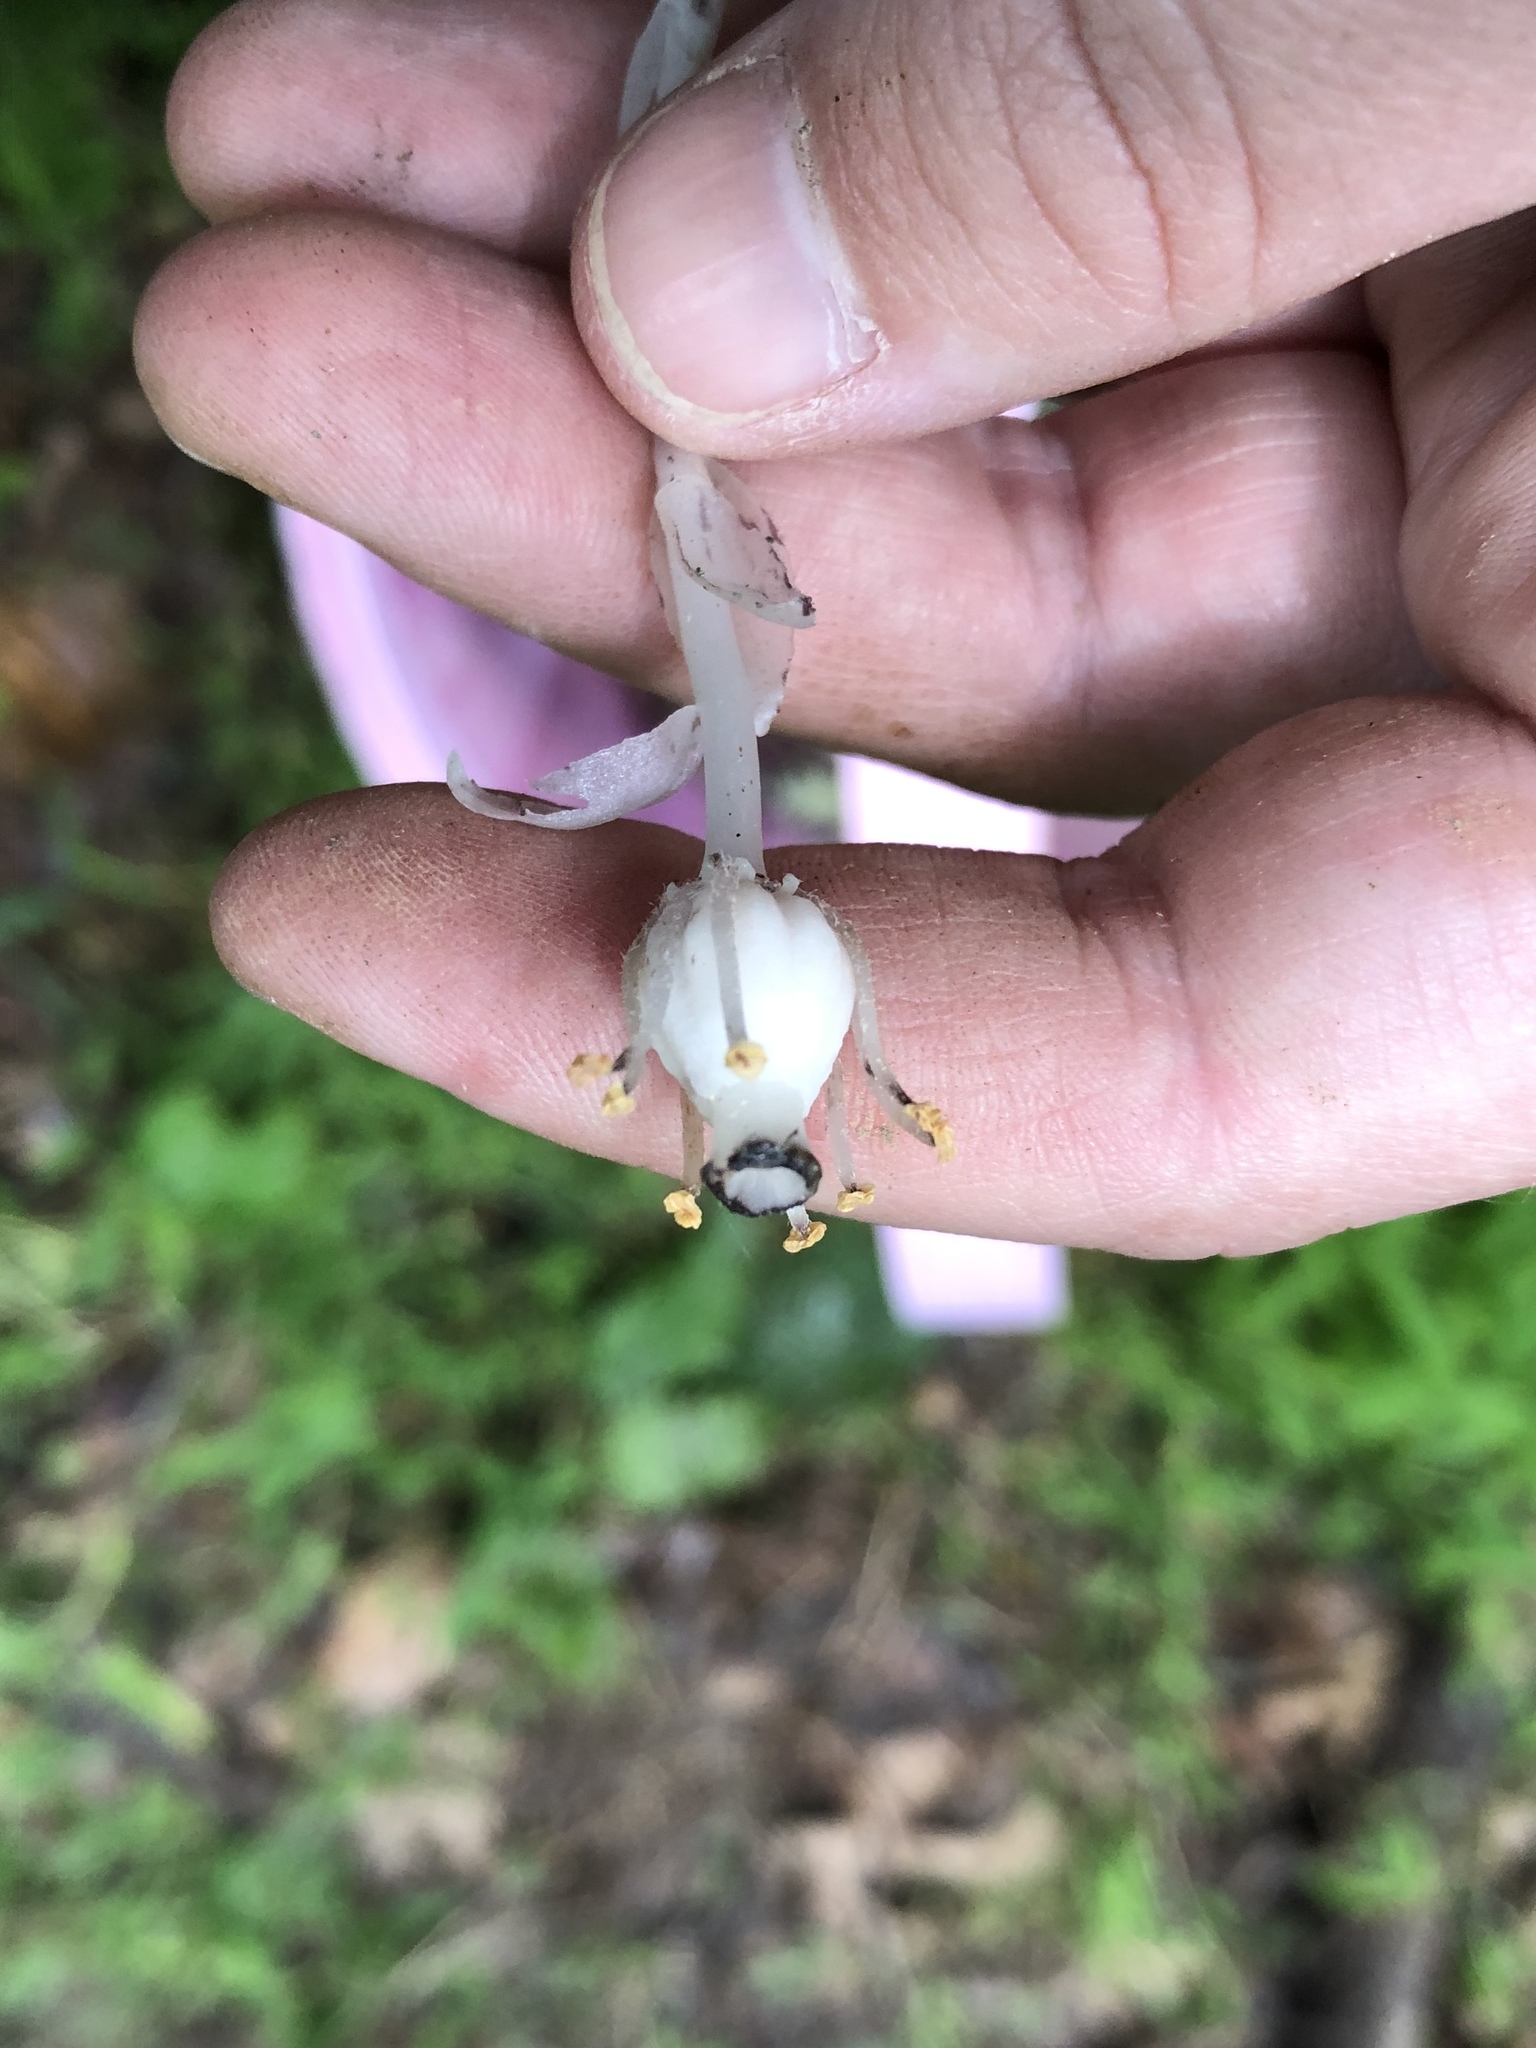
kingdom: Plantae
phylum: Tracheophyta
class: Magnoliopsida
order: Ericales
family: Ericaceae
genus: Monotropa
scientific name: Monotropa uniflora
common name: Convulsion root
